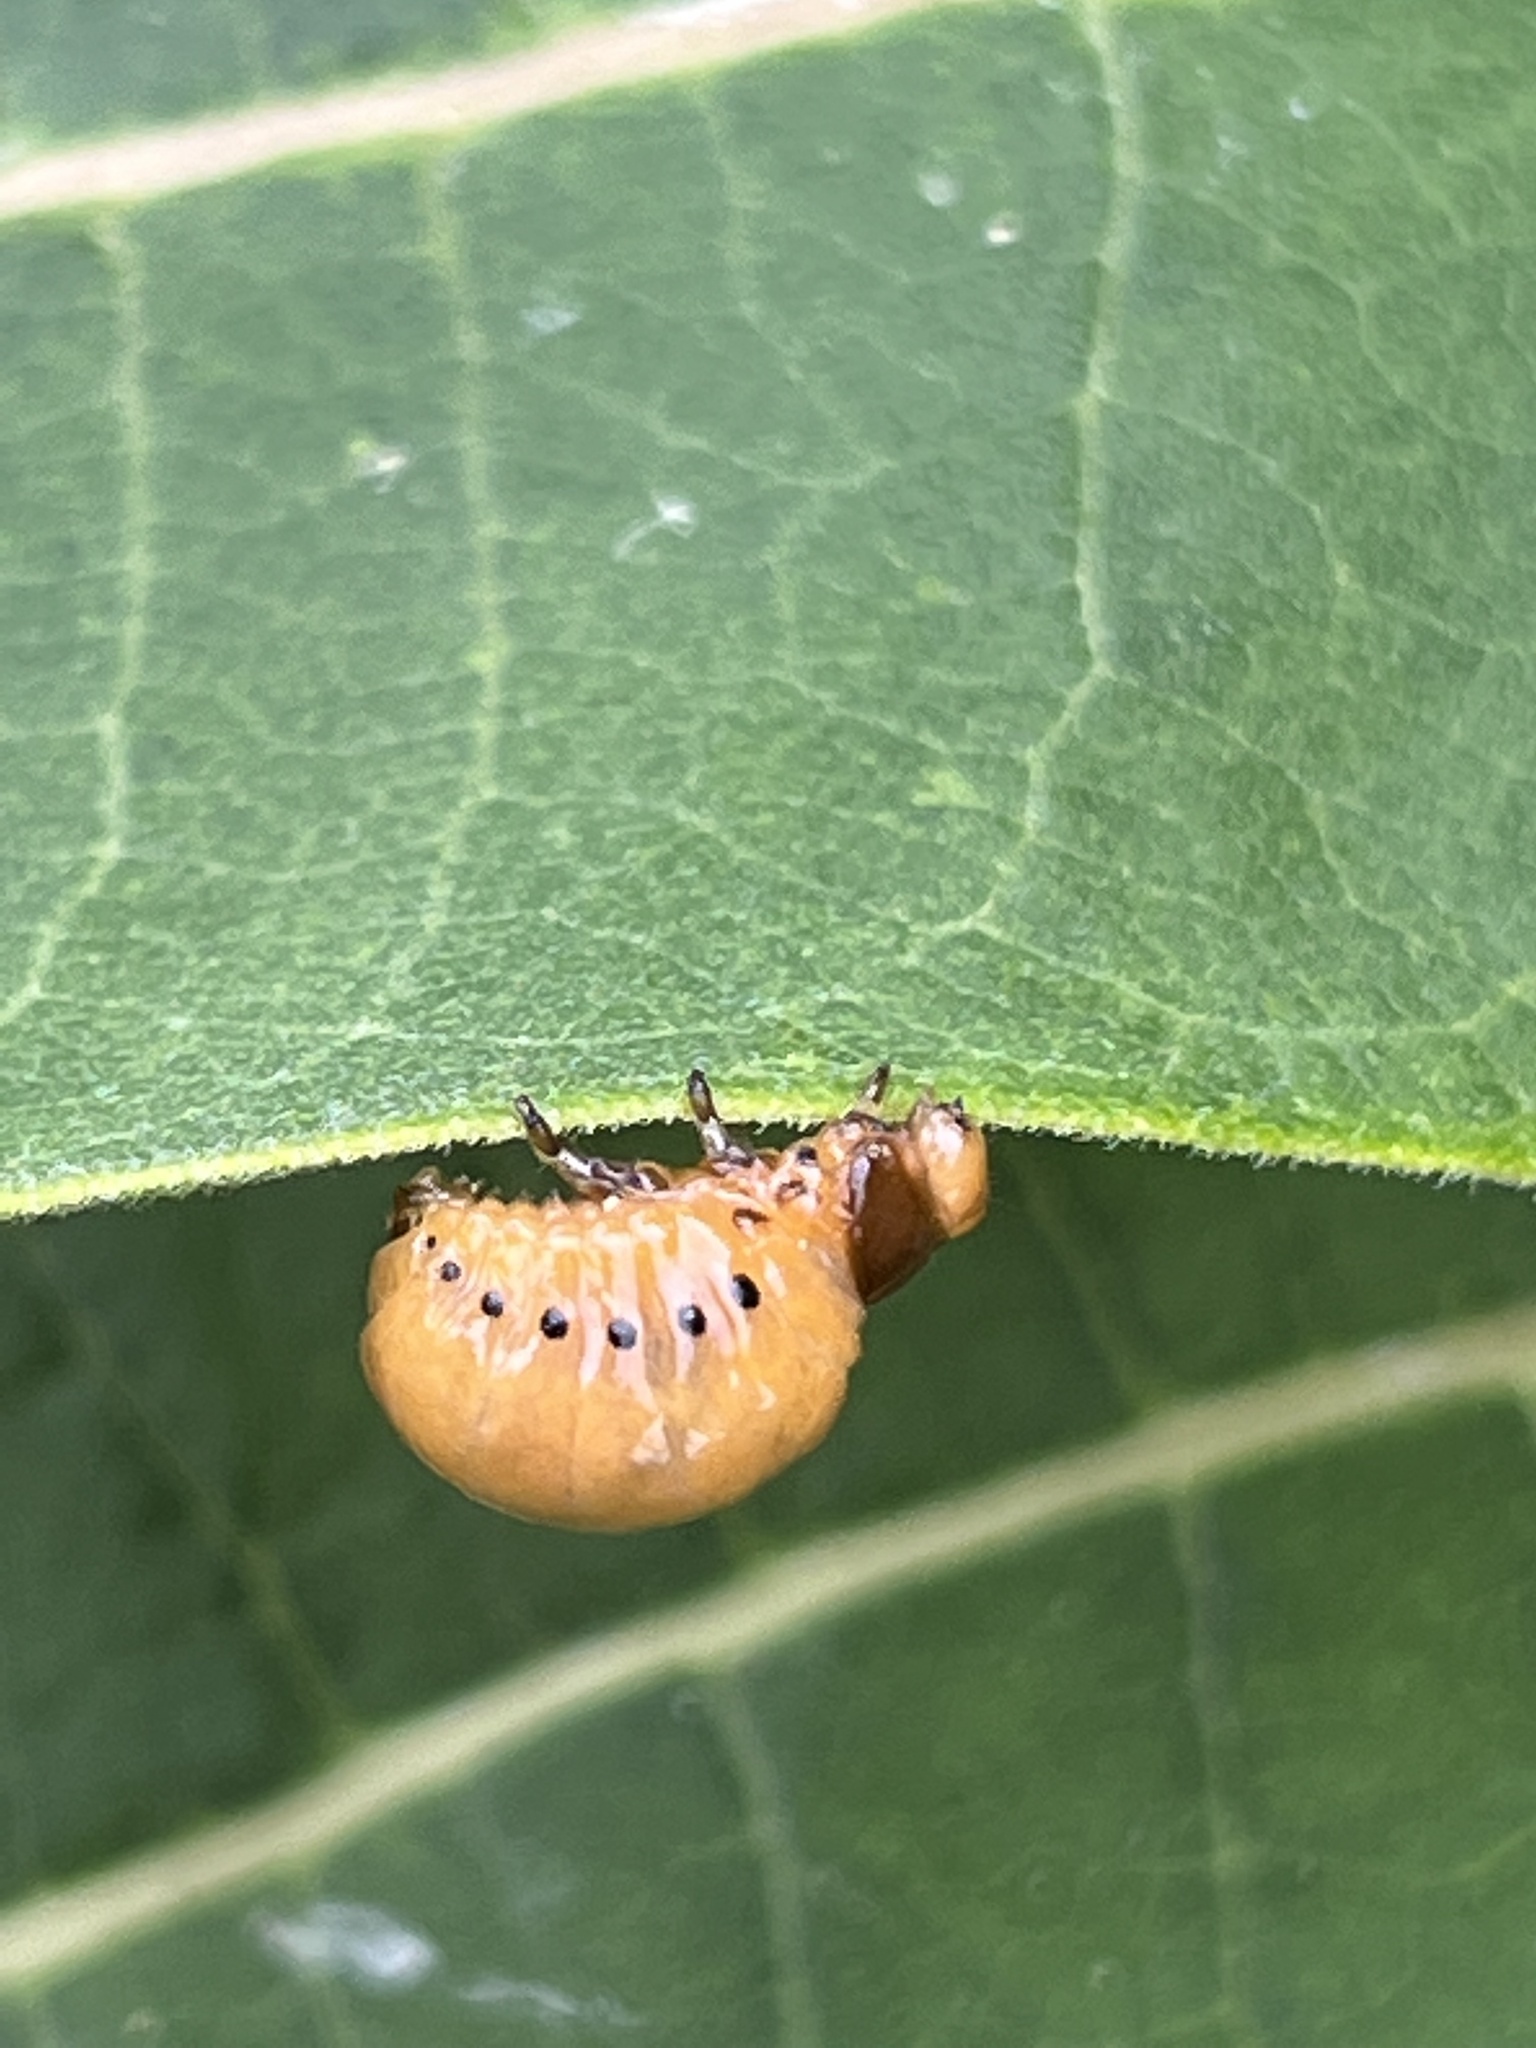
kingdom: Animalia
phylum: Arthropoda
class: Insecta
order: Coleoptera
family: Chrysomelidae
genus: Labidomera
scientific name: Labidomera clivicollis
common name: Swamp milkweed leaf beetle
